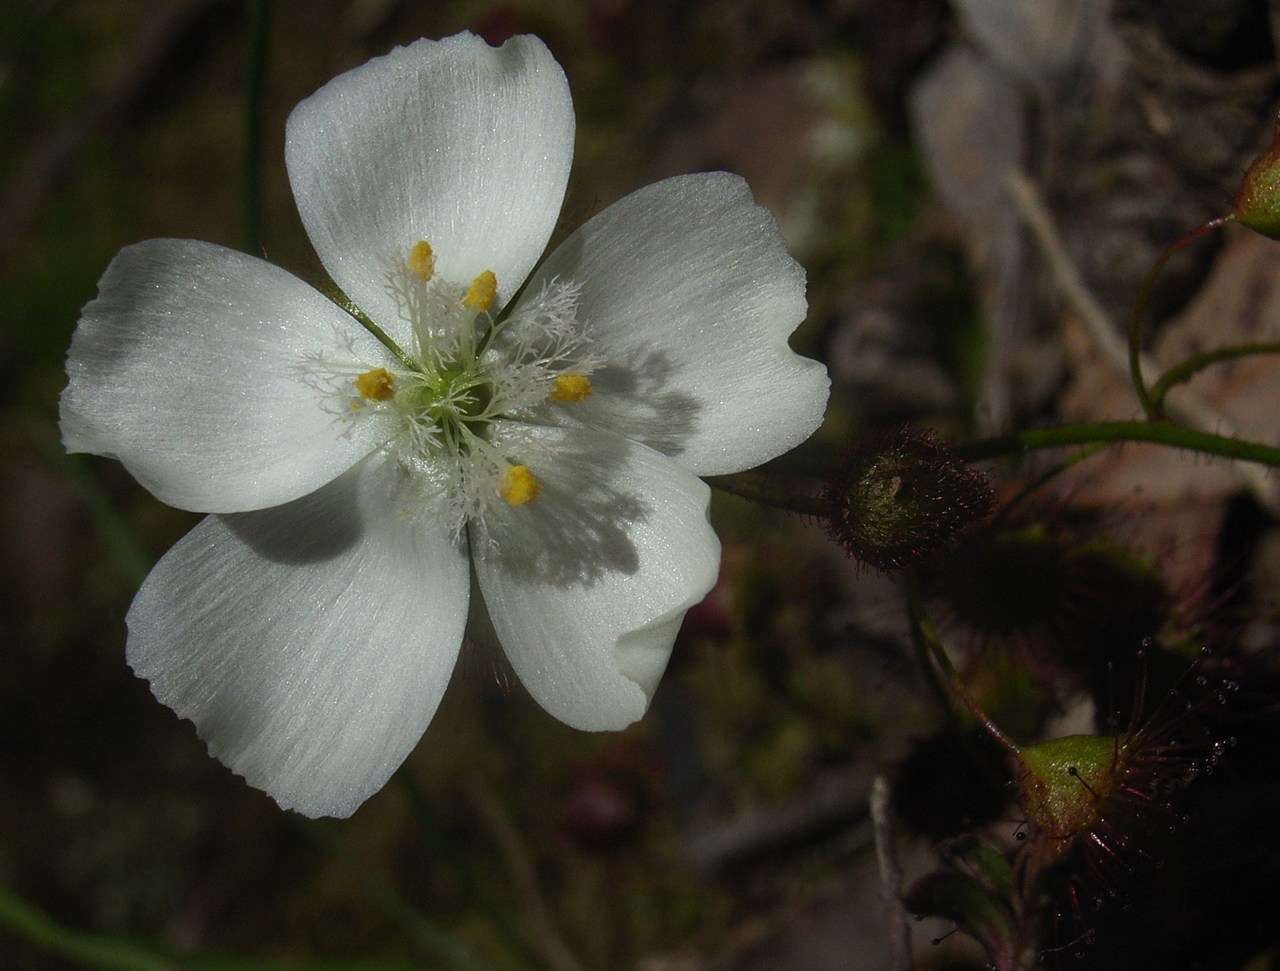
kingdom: Plantae
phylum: Tracheophyta
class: Magnoliopsida
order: Caryophyllales
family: Droseraceae
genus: Drosera
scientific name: Drosera planchonii
